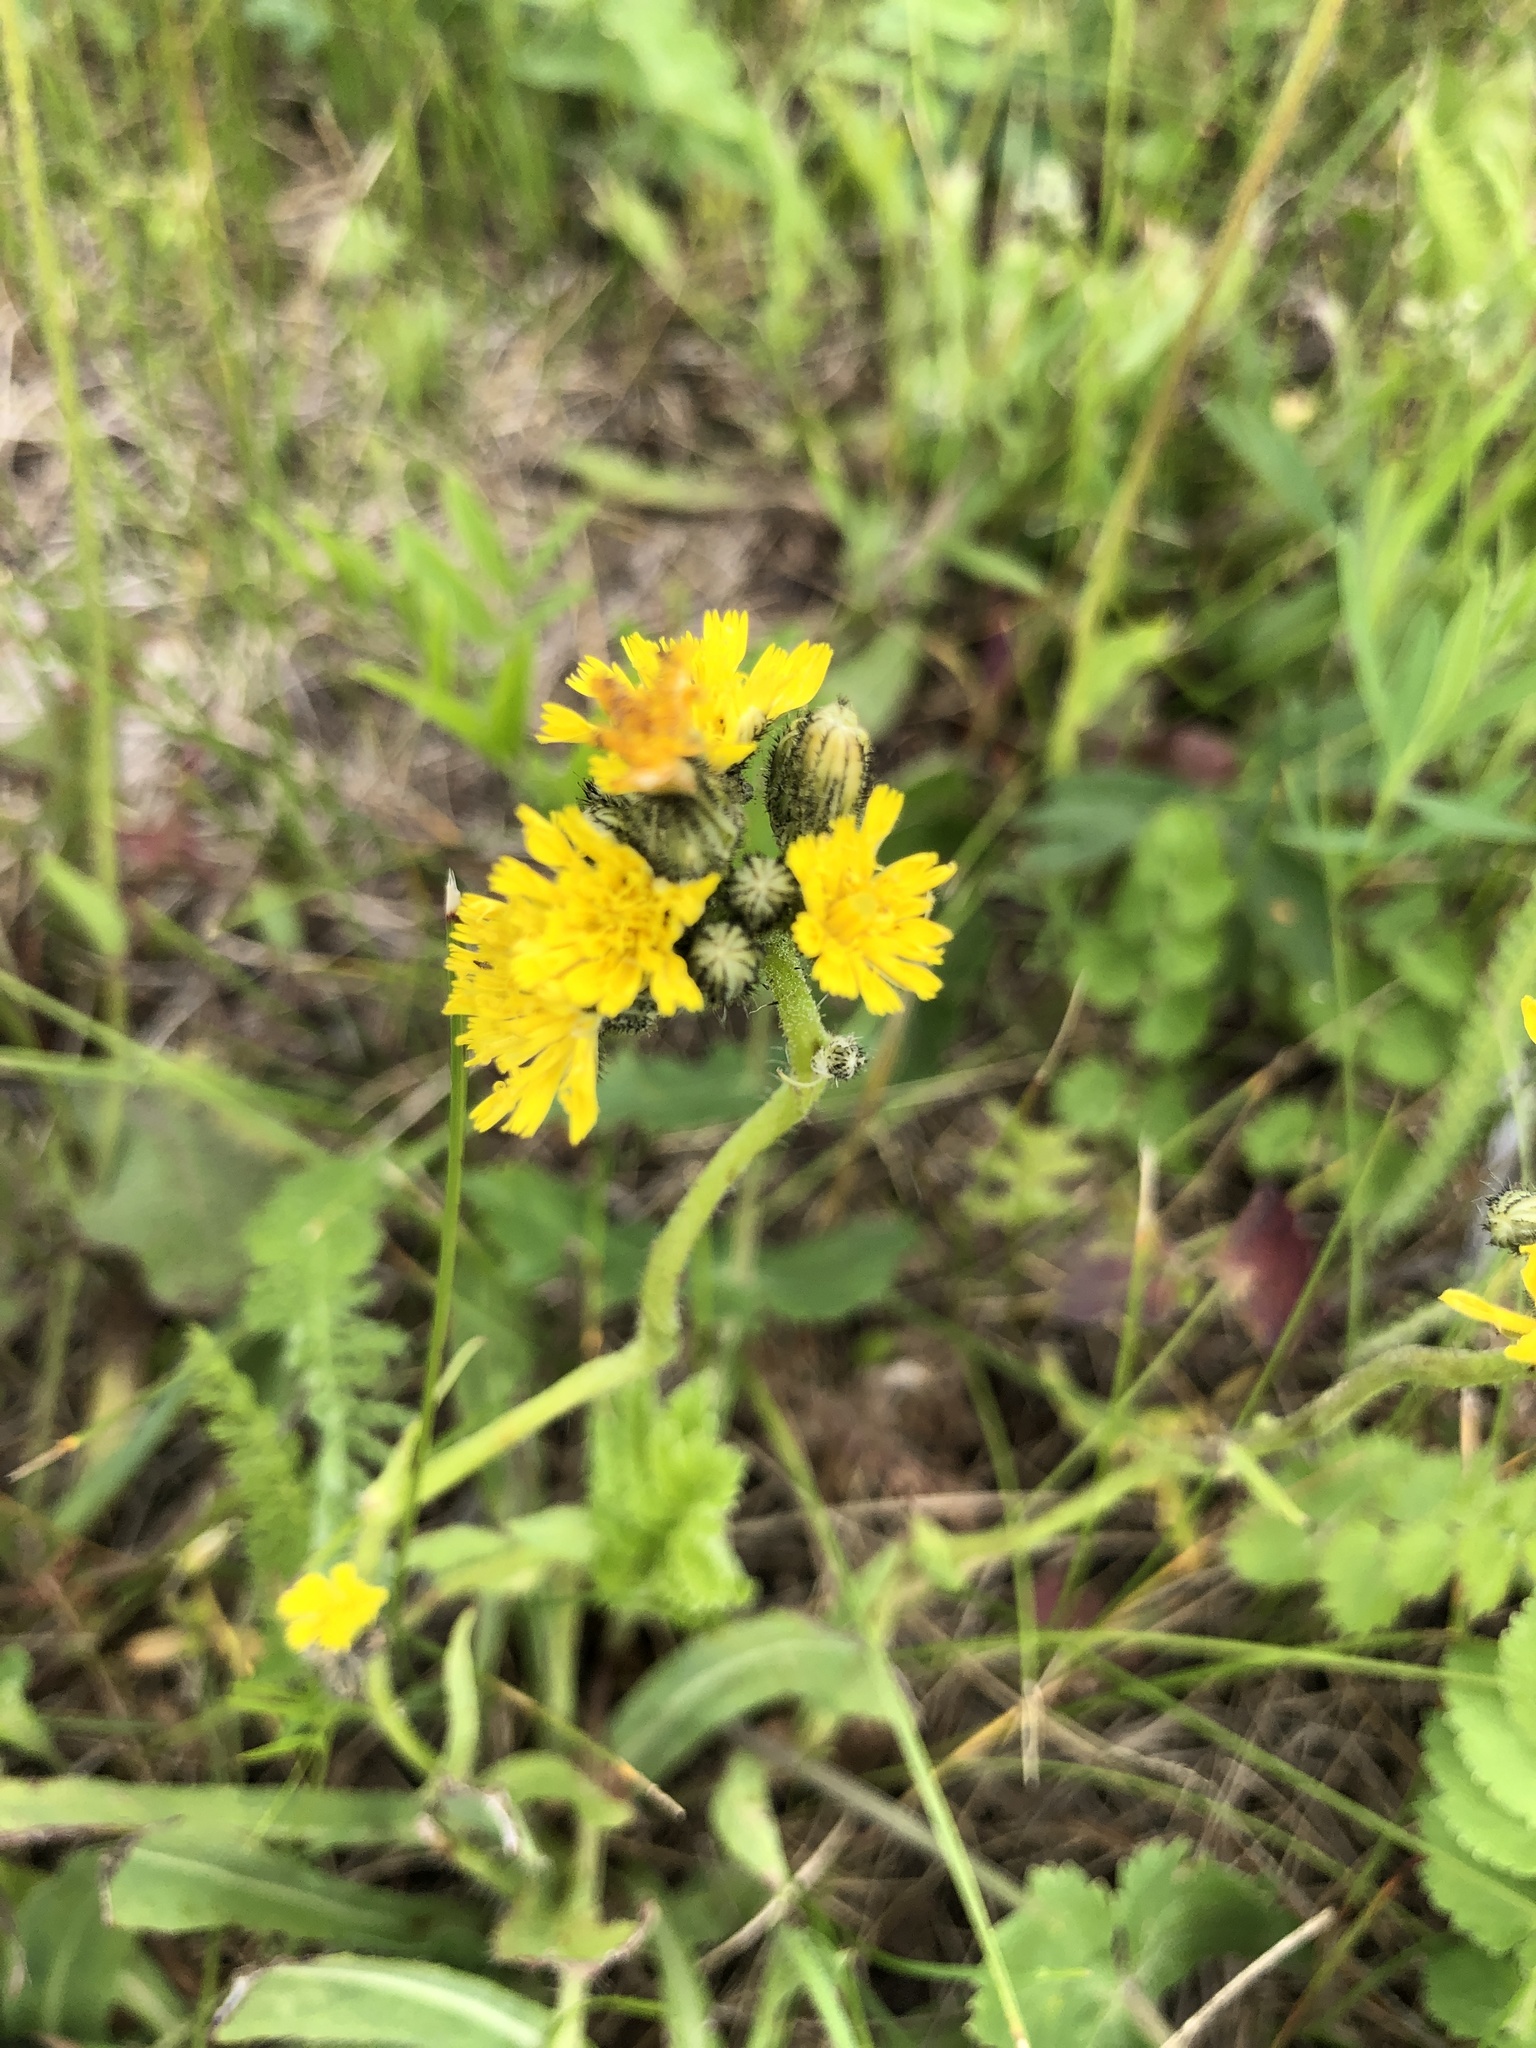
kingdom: Plantae
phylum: Tracheophyta
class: Magnoliopsida
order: Asterales
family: Asteraceae
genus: Pilosella
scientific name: Pilosella
